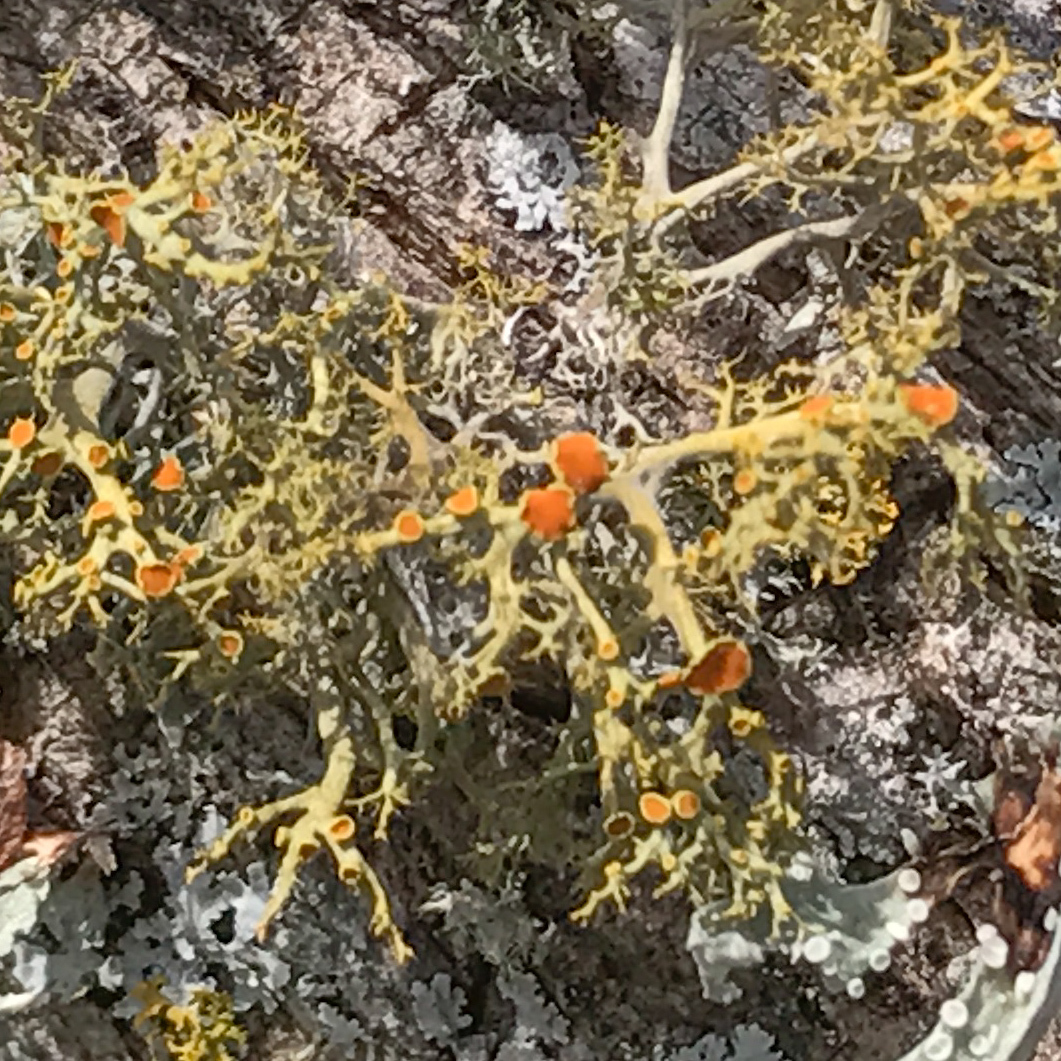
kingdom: Fungi
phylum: Ascomycota
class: Lecanoromycetes
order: Teloschistales
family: Teloschistaceae
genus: Teloschistes
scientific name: Teloschistes exilis
